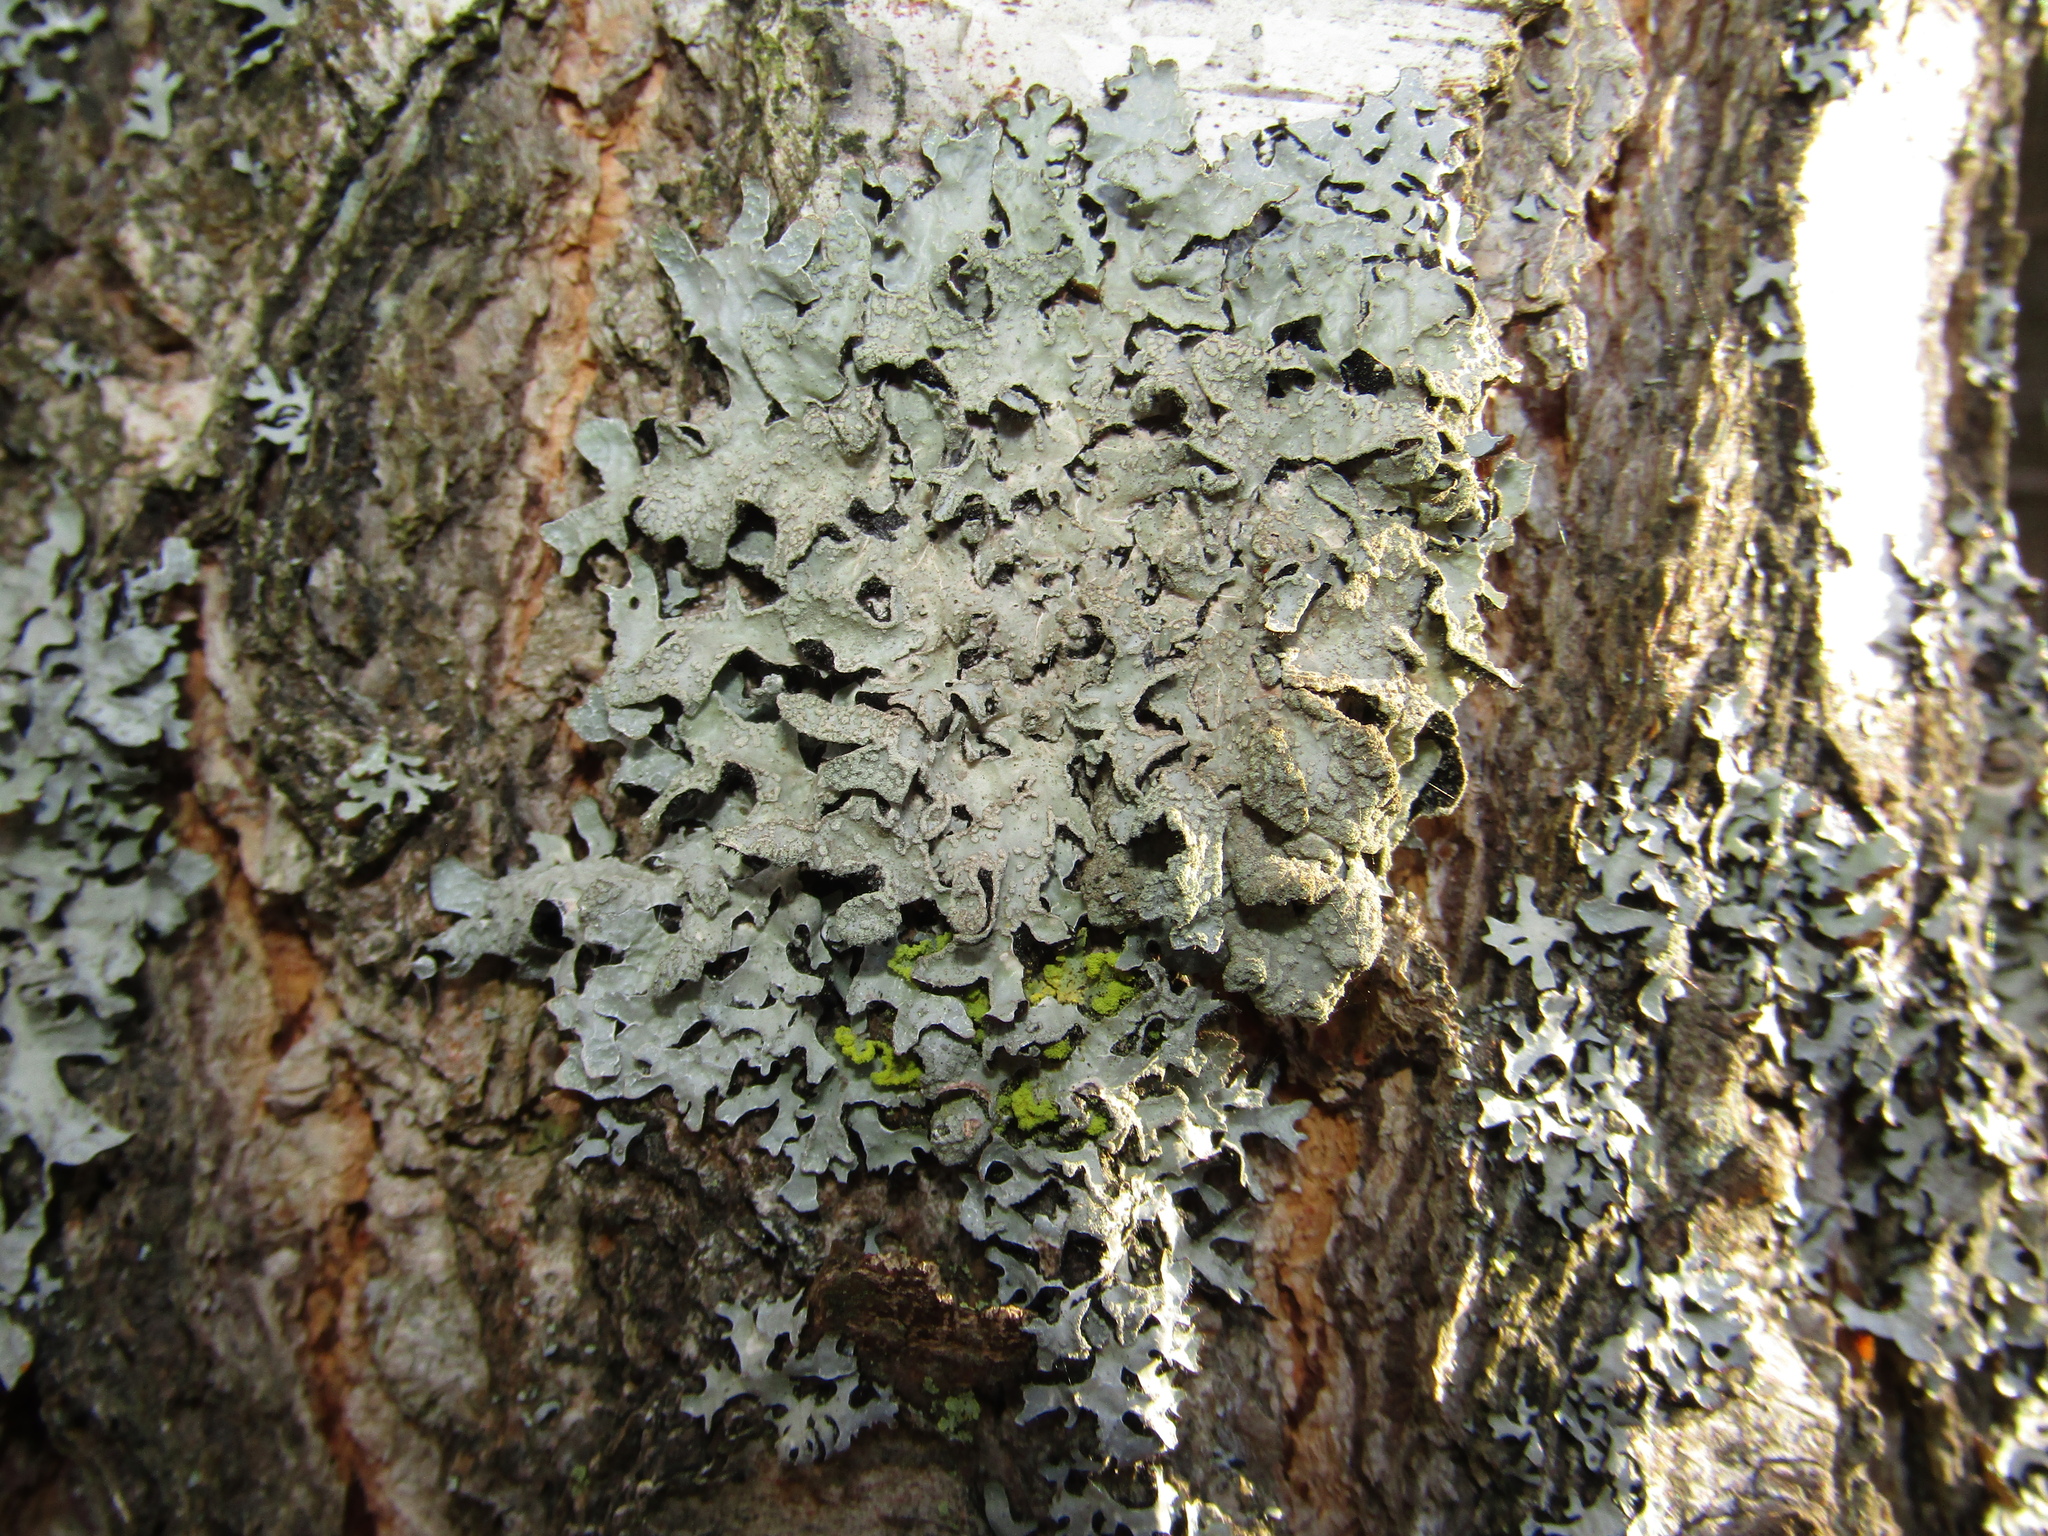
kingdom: Fungi
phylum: Ascomycota
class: Lecanoromycetes
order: Lecanorales
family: Parmeliaceae
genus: Parmelia
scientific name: Parmelia sulcata
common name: Netted shield lichen
